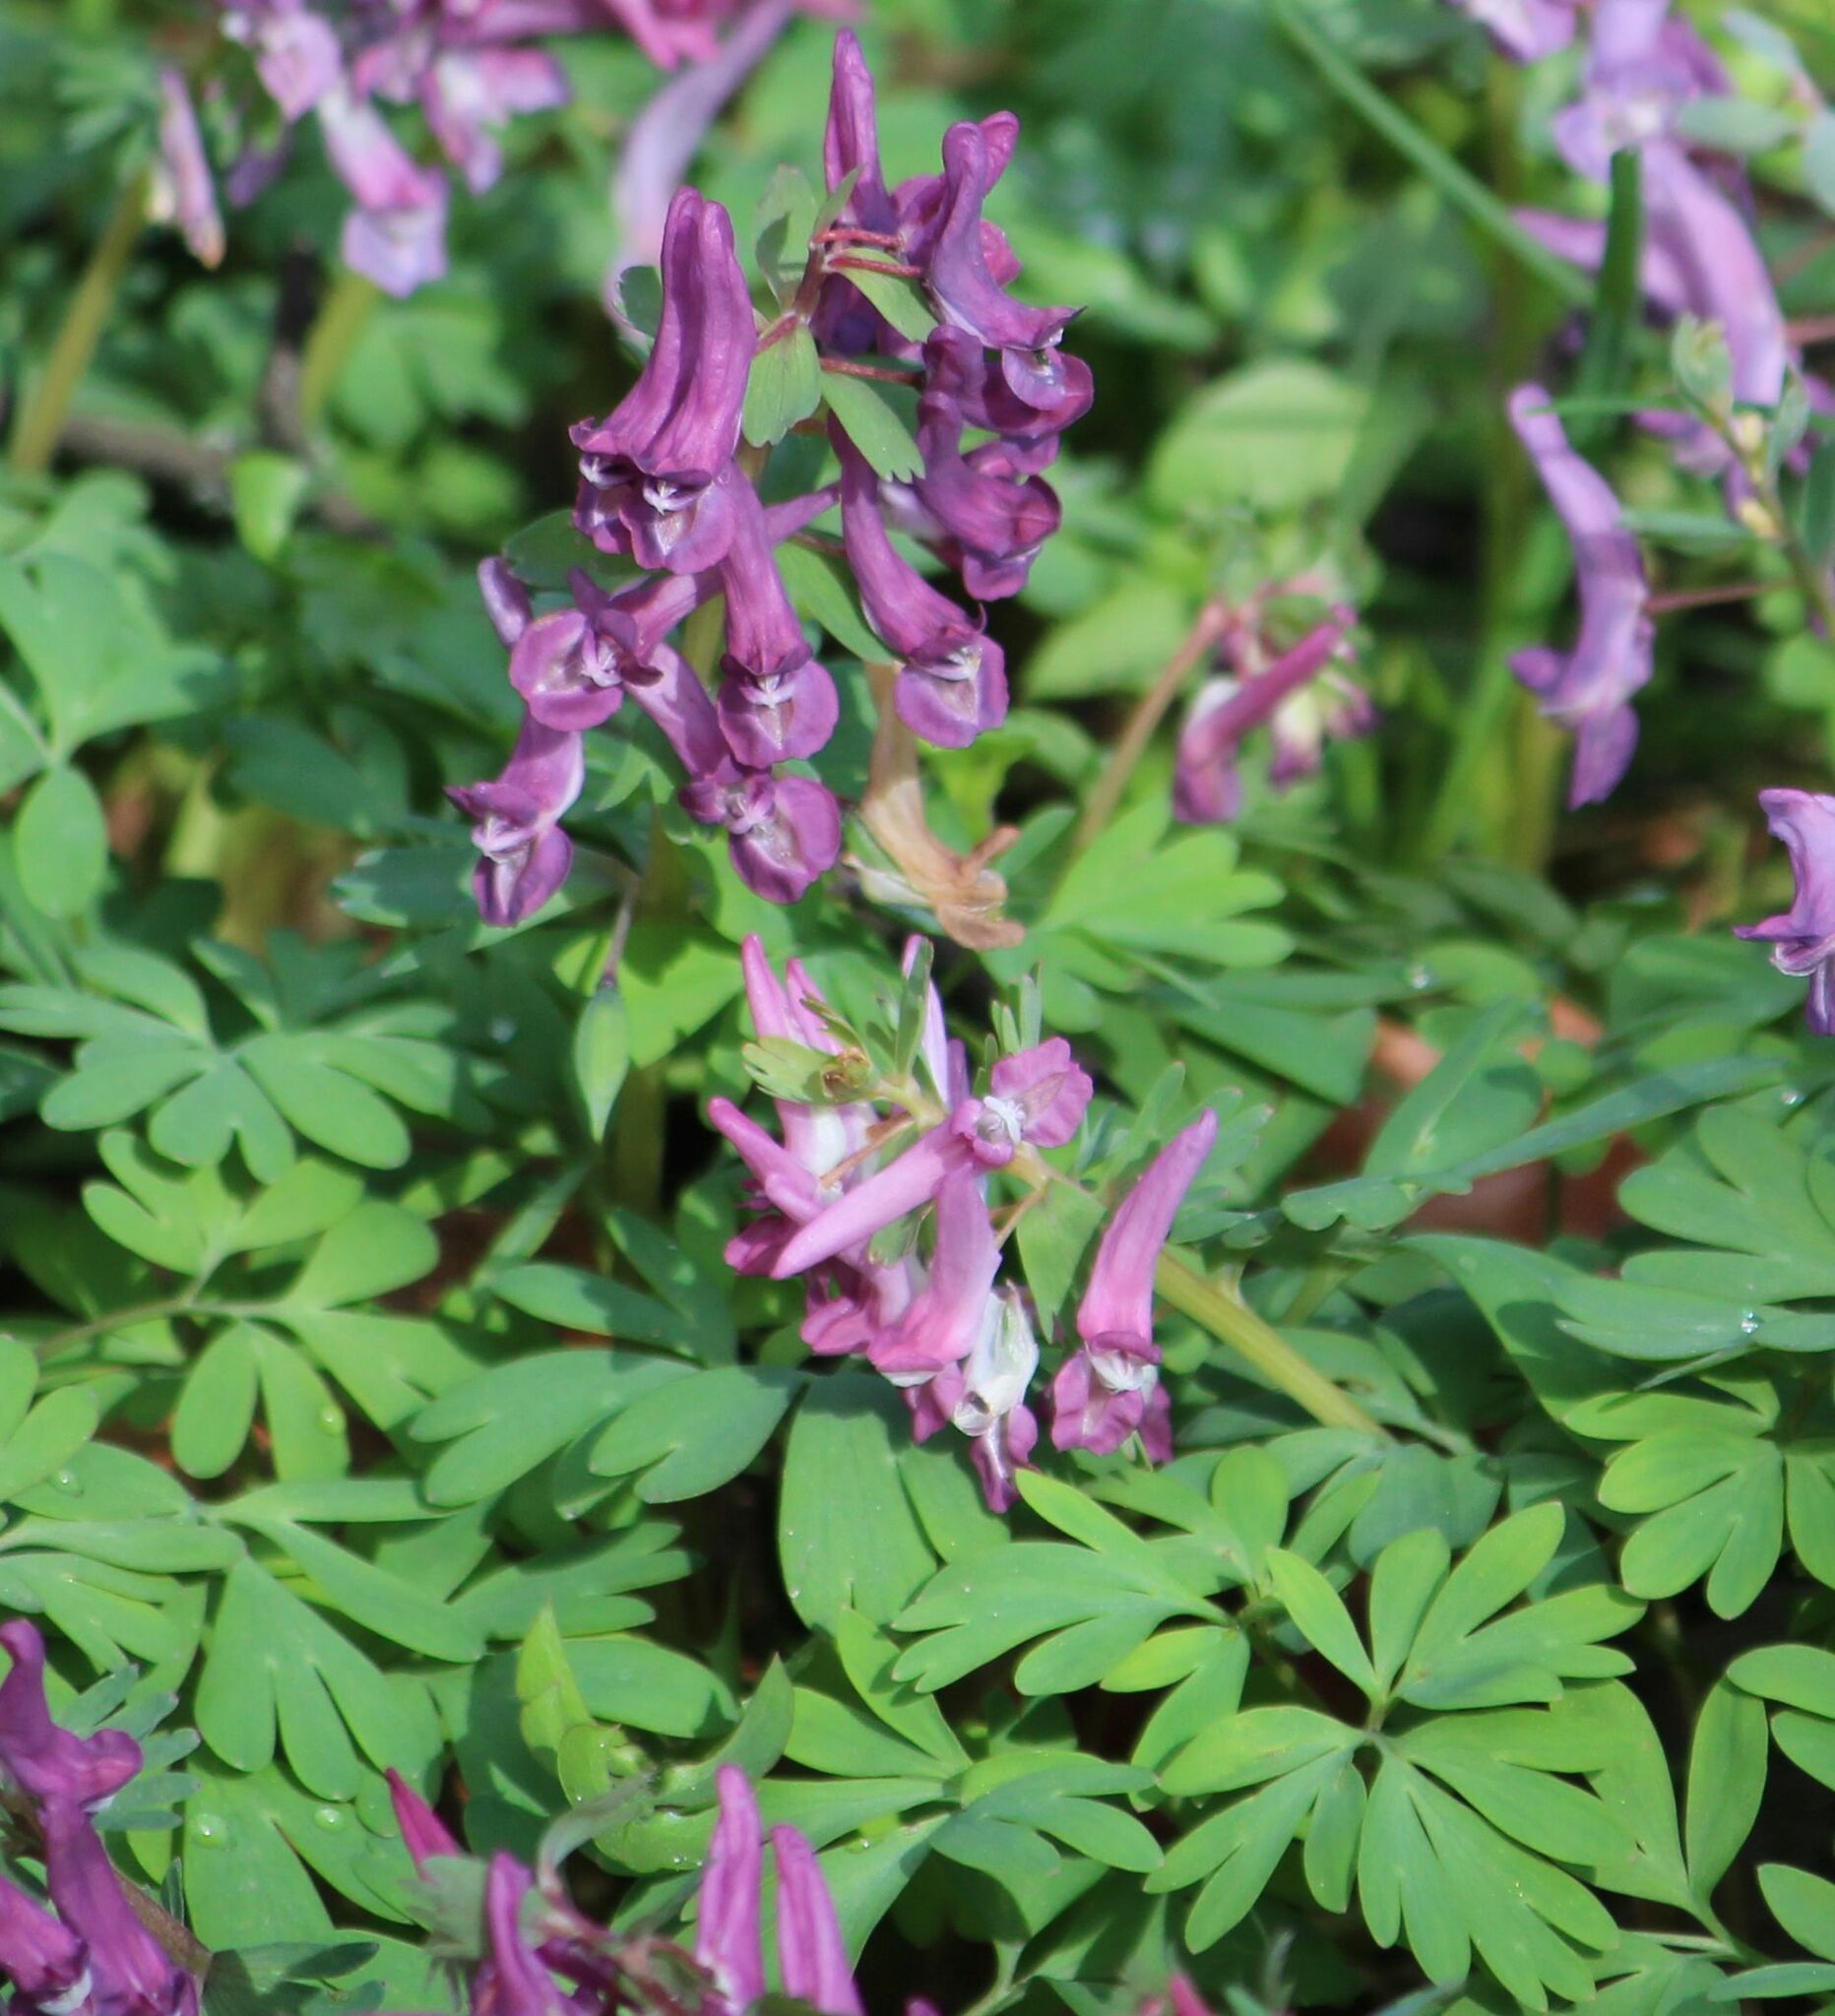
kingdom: Plantae
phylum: Tracheophyta
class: Magnoliopsida
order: Ranunculales
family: Papaveraceae
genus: Corydalis
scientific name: Corydalis solida
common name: Bird-in-a-bush
